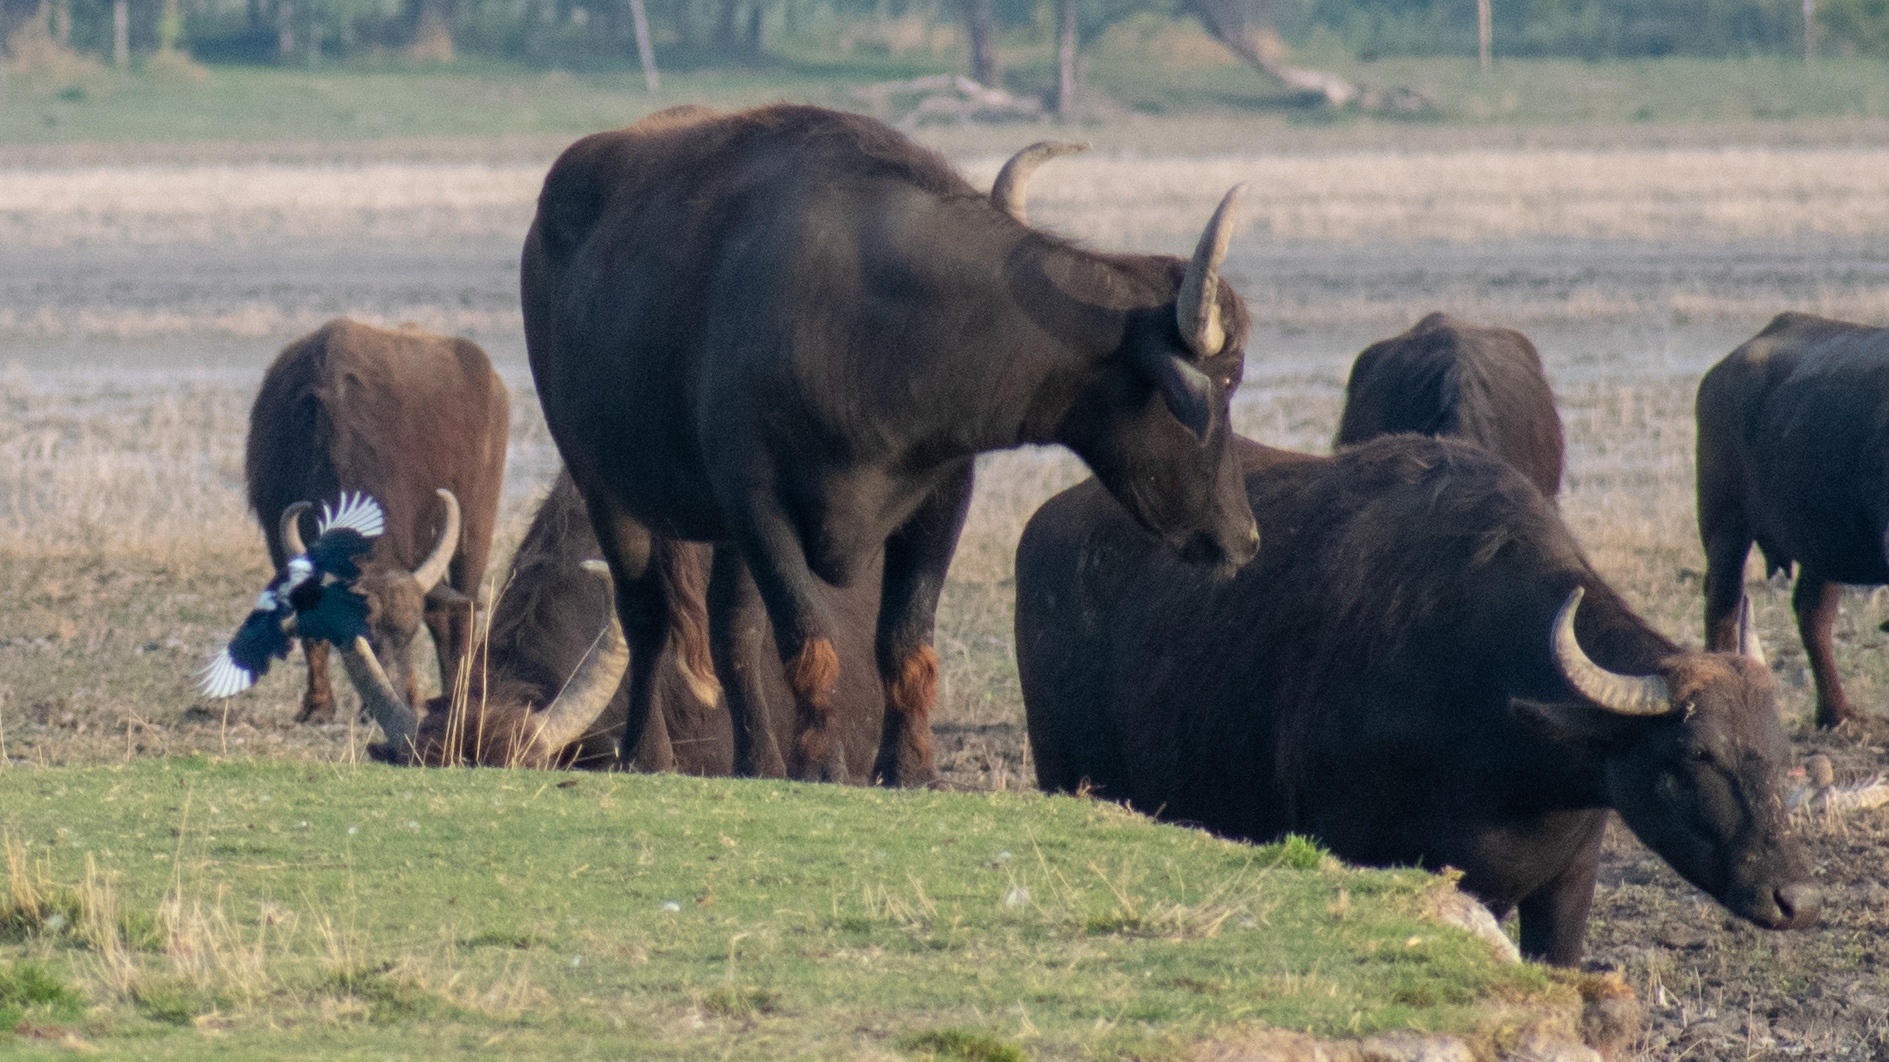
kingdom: Animalia
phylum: Chordata
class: Mammalia
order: Artiodactyla
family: Bovidae
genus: Bubalus
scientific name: Bubalus bubalis
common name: Water buffalo
